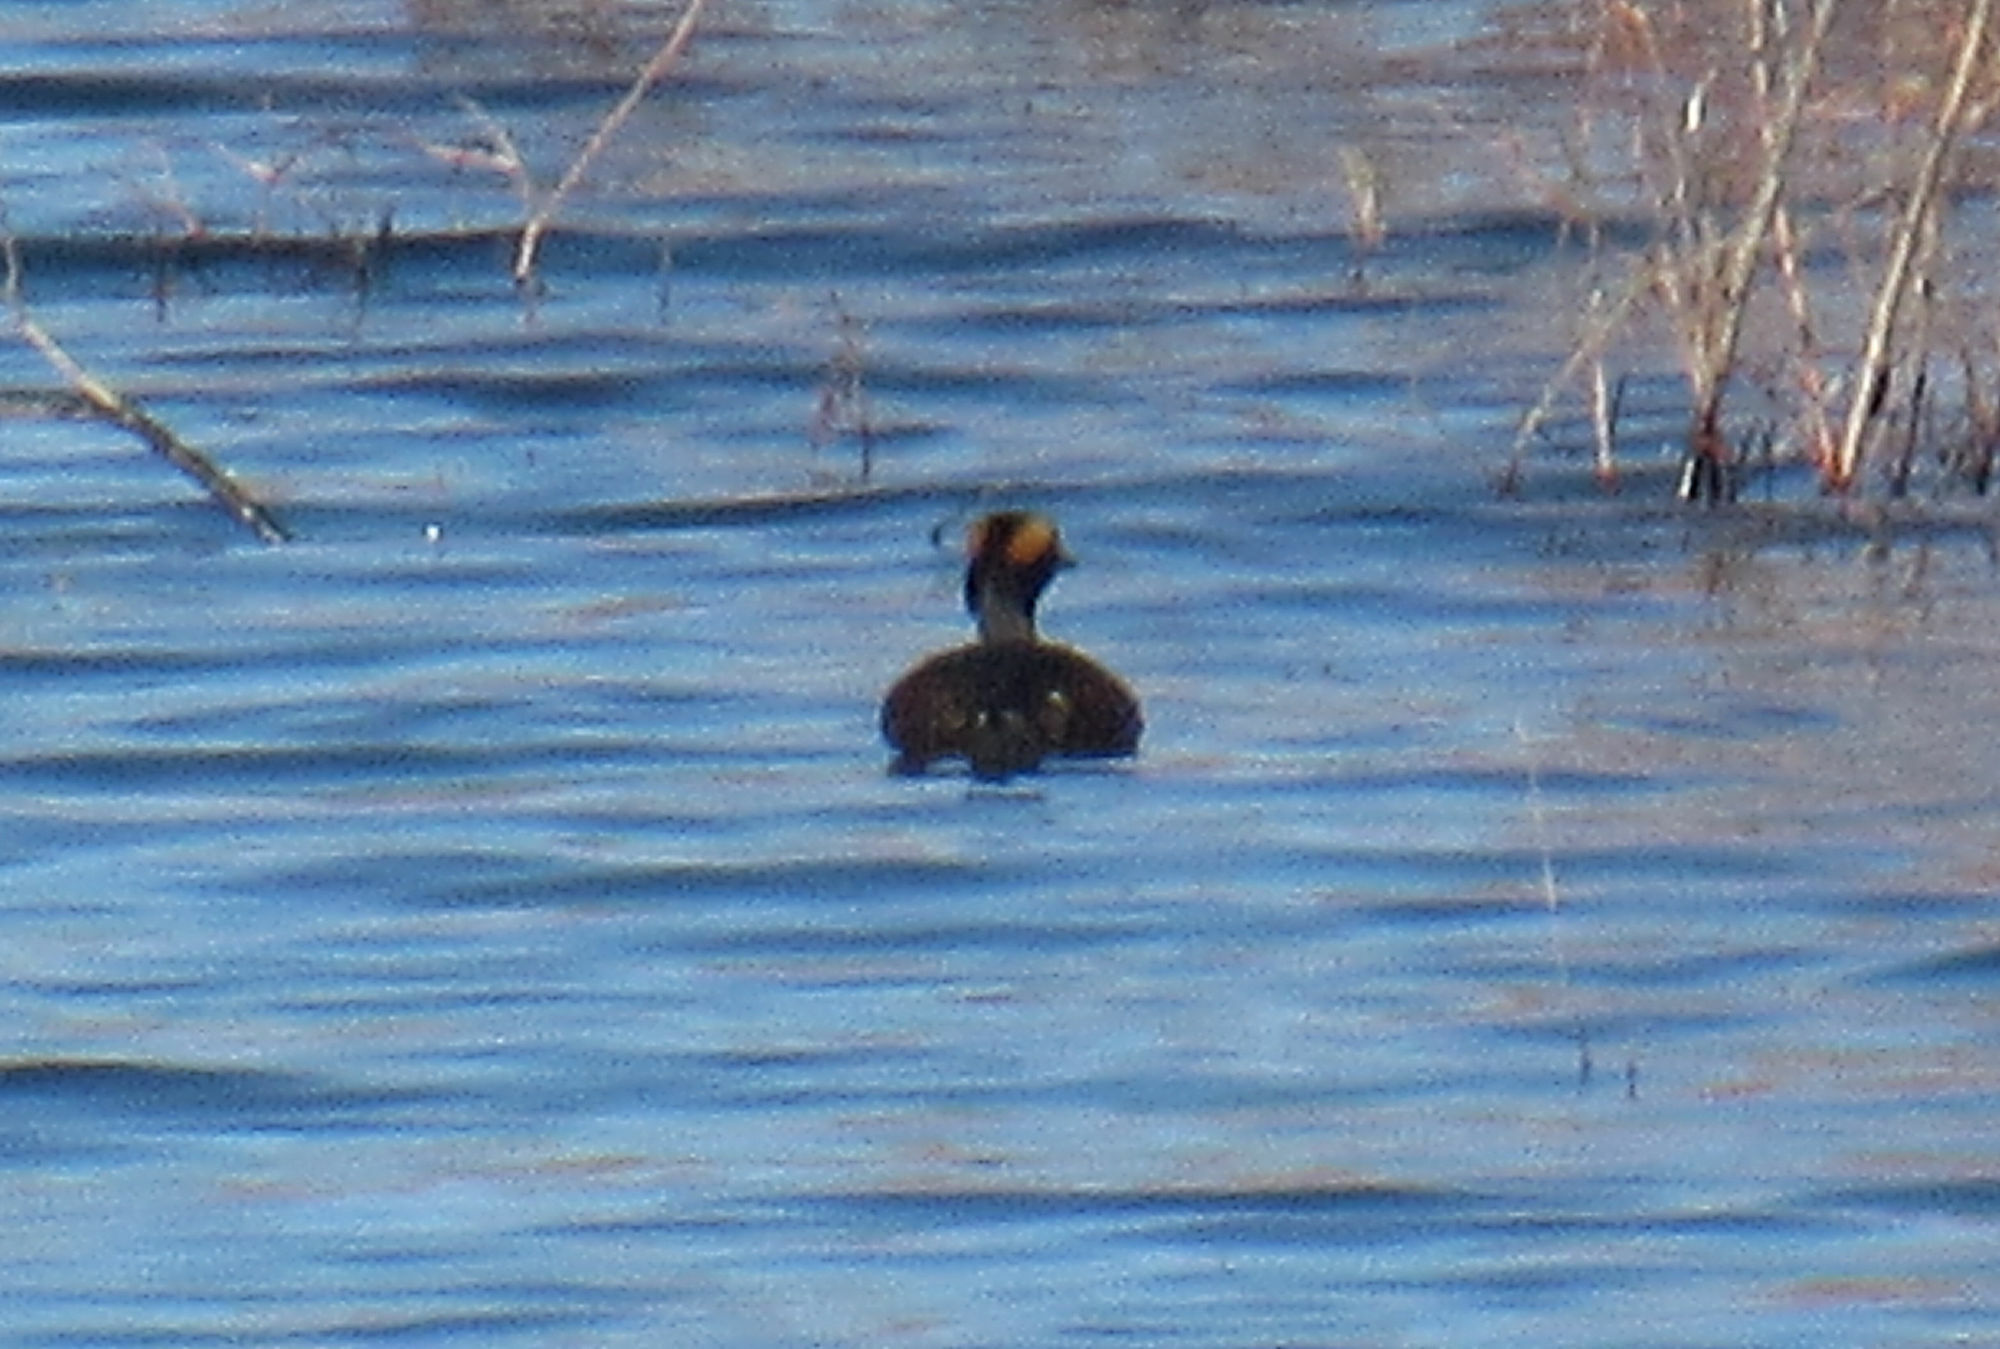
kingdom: Animalia
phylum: Chordata
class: Aves
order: Podicipediformes
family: Podicipedidae
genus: Podiceps
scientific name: Podiceps auritus
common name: Horned grebe
